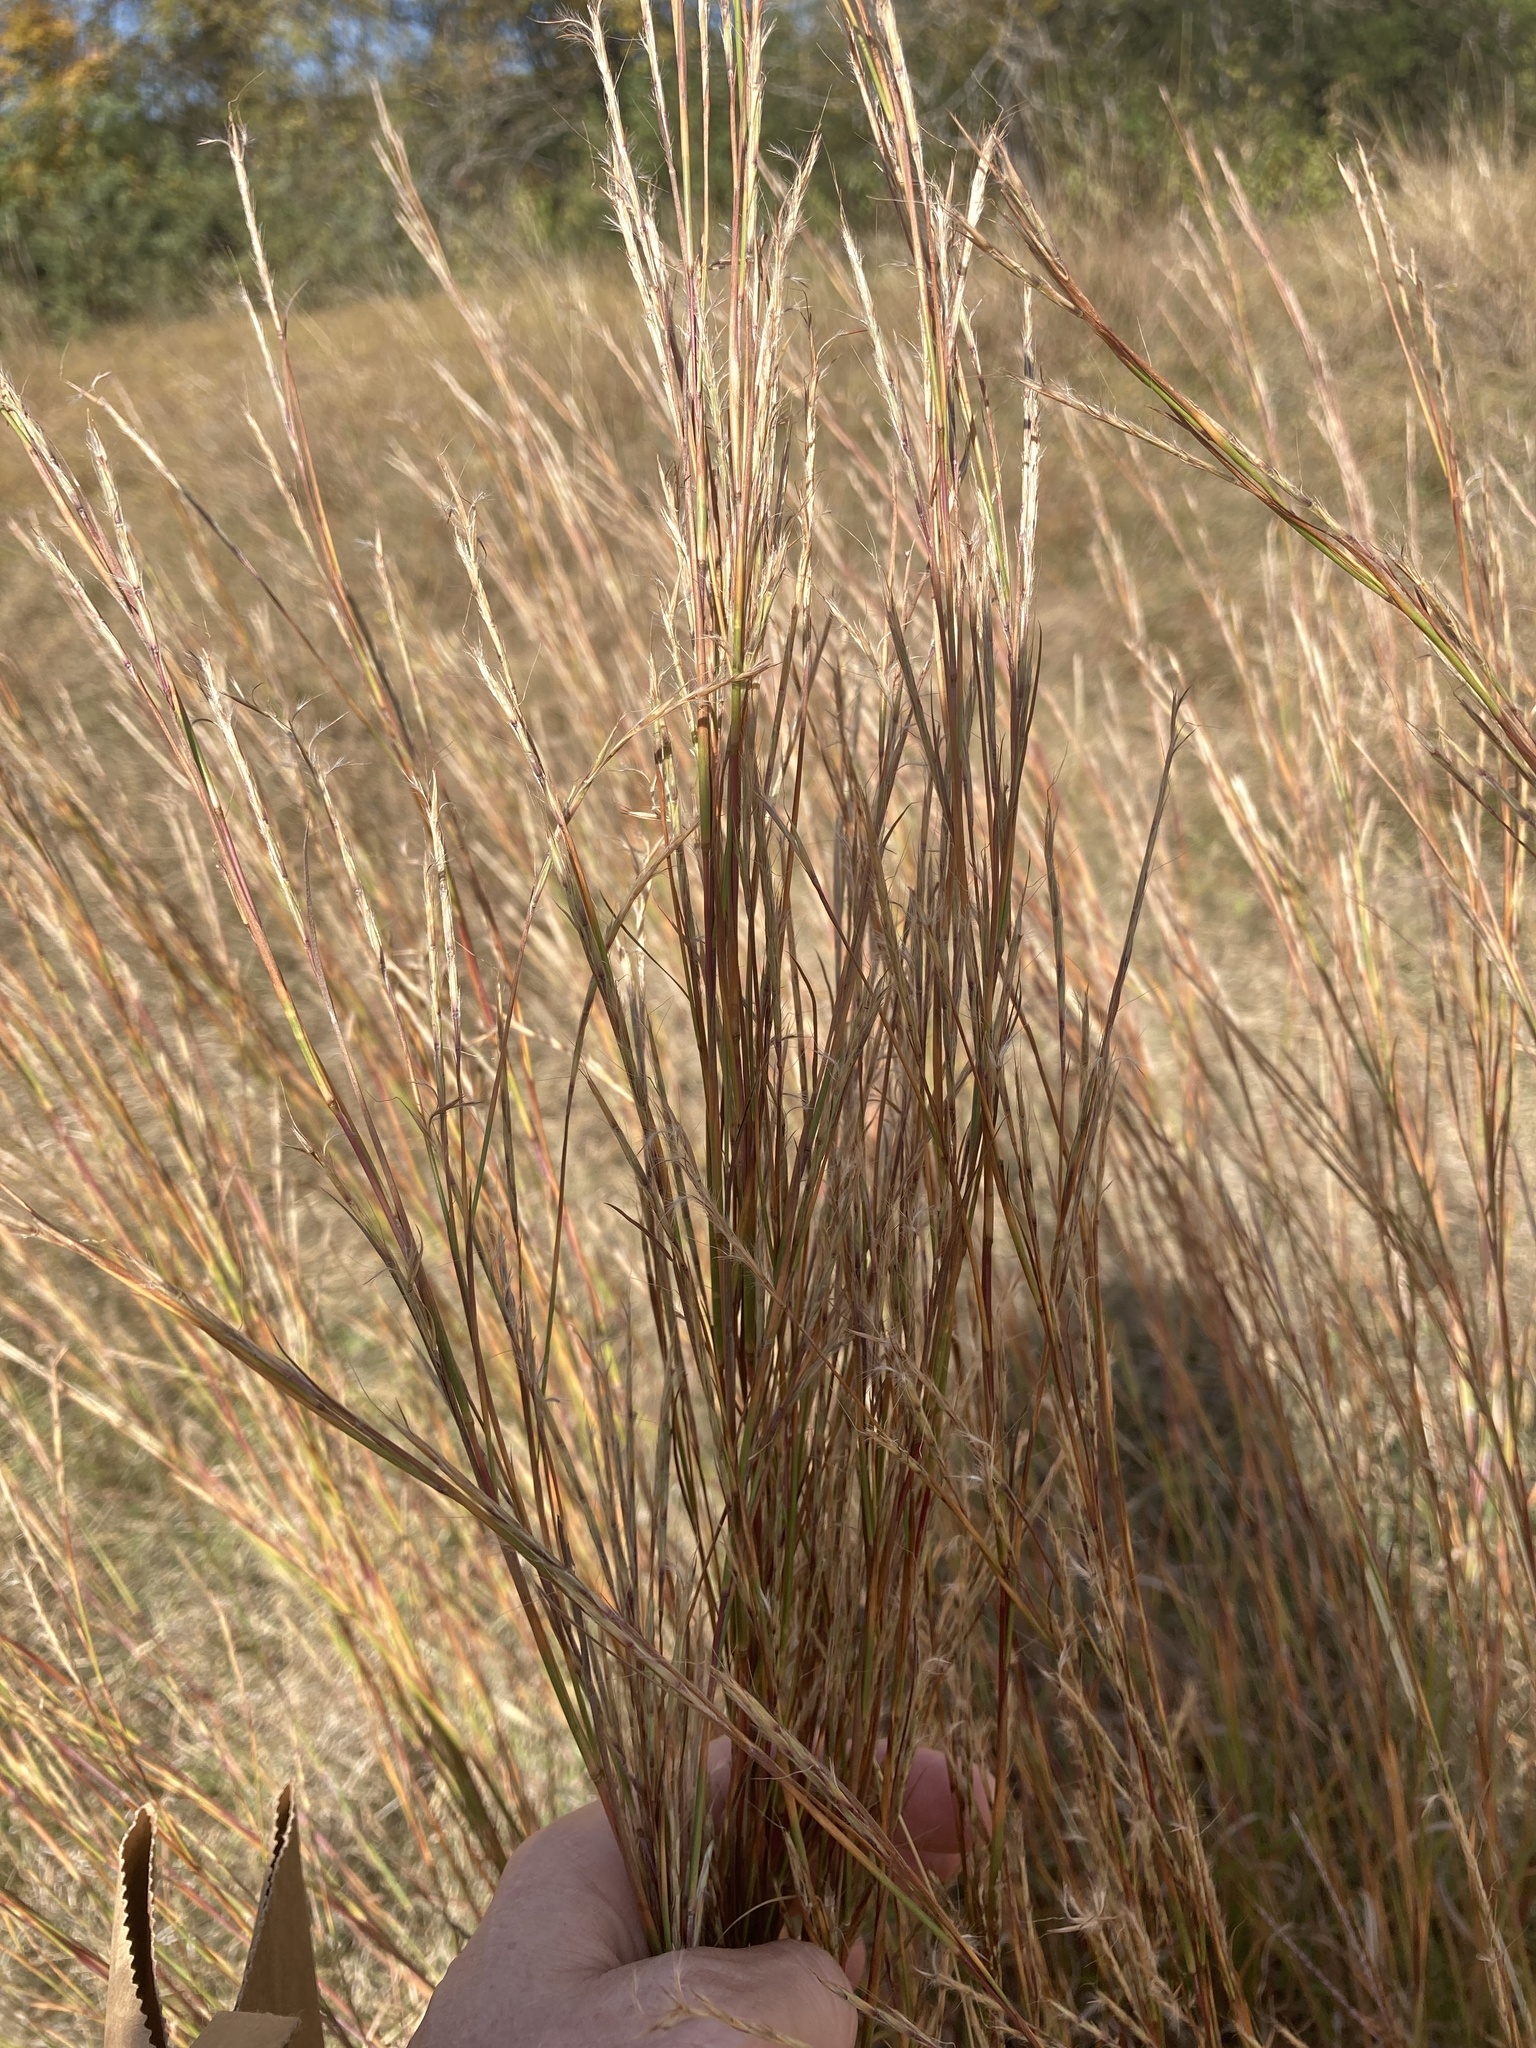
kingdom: Plantae
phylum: Tracheophyta
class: Liliopsida
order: Poales
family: Poaceae
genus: Schizachyrium
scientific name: Schizachyrium scoparium
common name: Little bluestem
